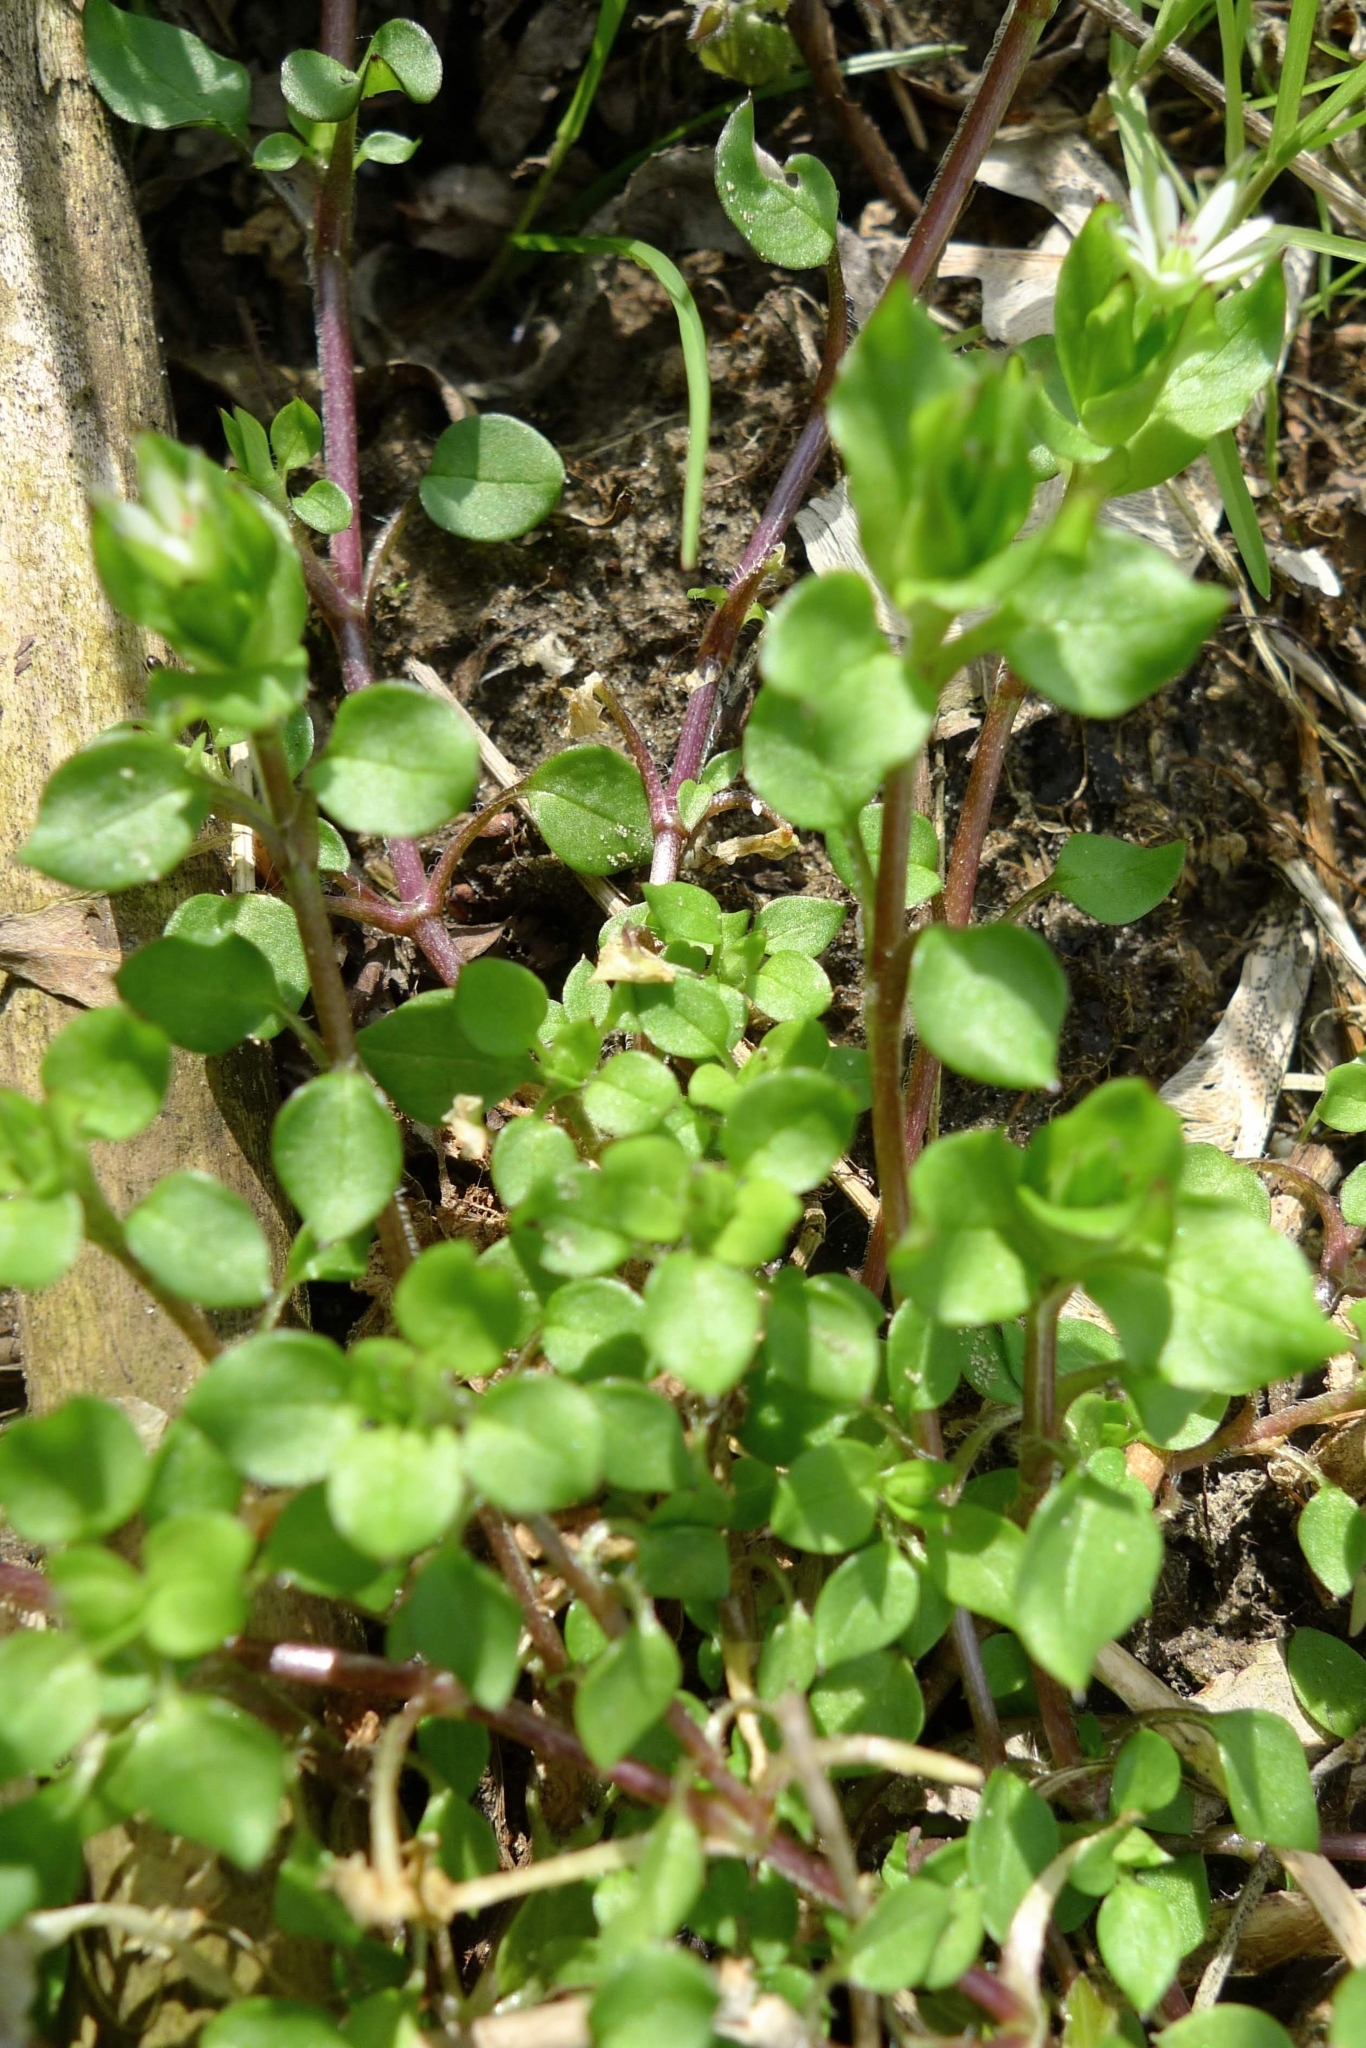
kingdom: Plantae
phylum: Tracheophyta
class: Magnoliopsida
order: Caryophyllales
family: Caryophyllaceae
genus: Stellaria
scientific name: Stellaria media
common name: Common chickweed
